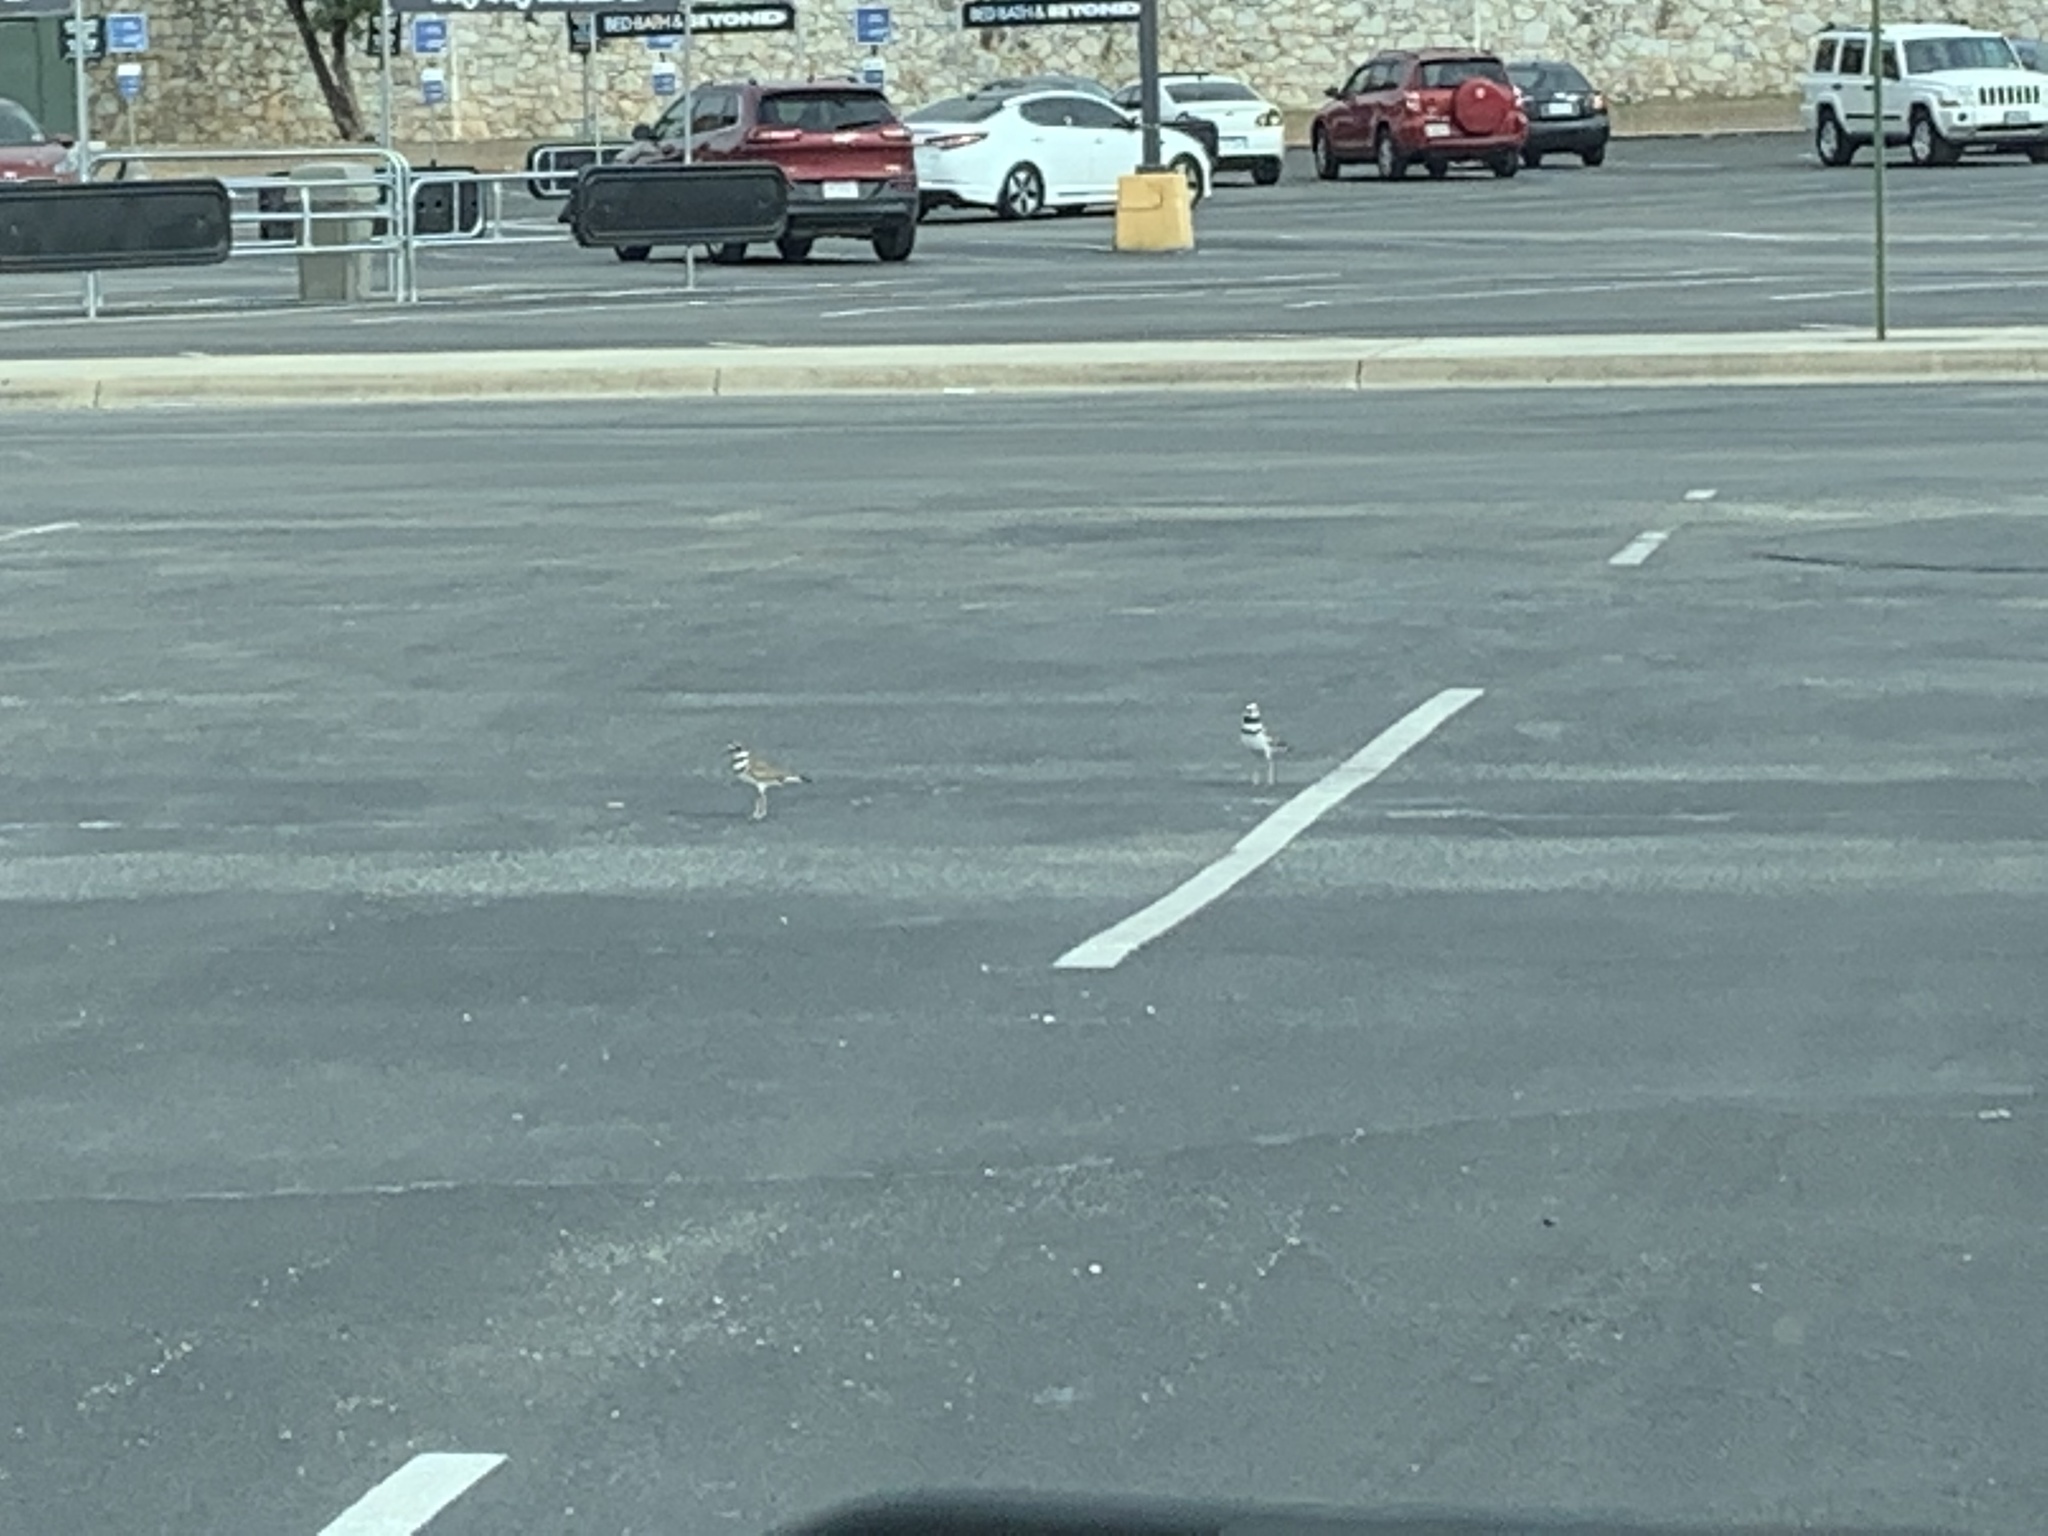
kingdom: Animalia
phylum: Chordata
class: Aves
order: Charadriiformes
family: Charadriidae
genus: Charadrius
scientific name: Charadrius vociferus
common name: Killdeer
